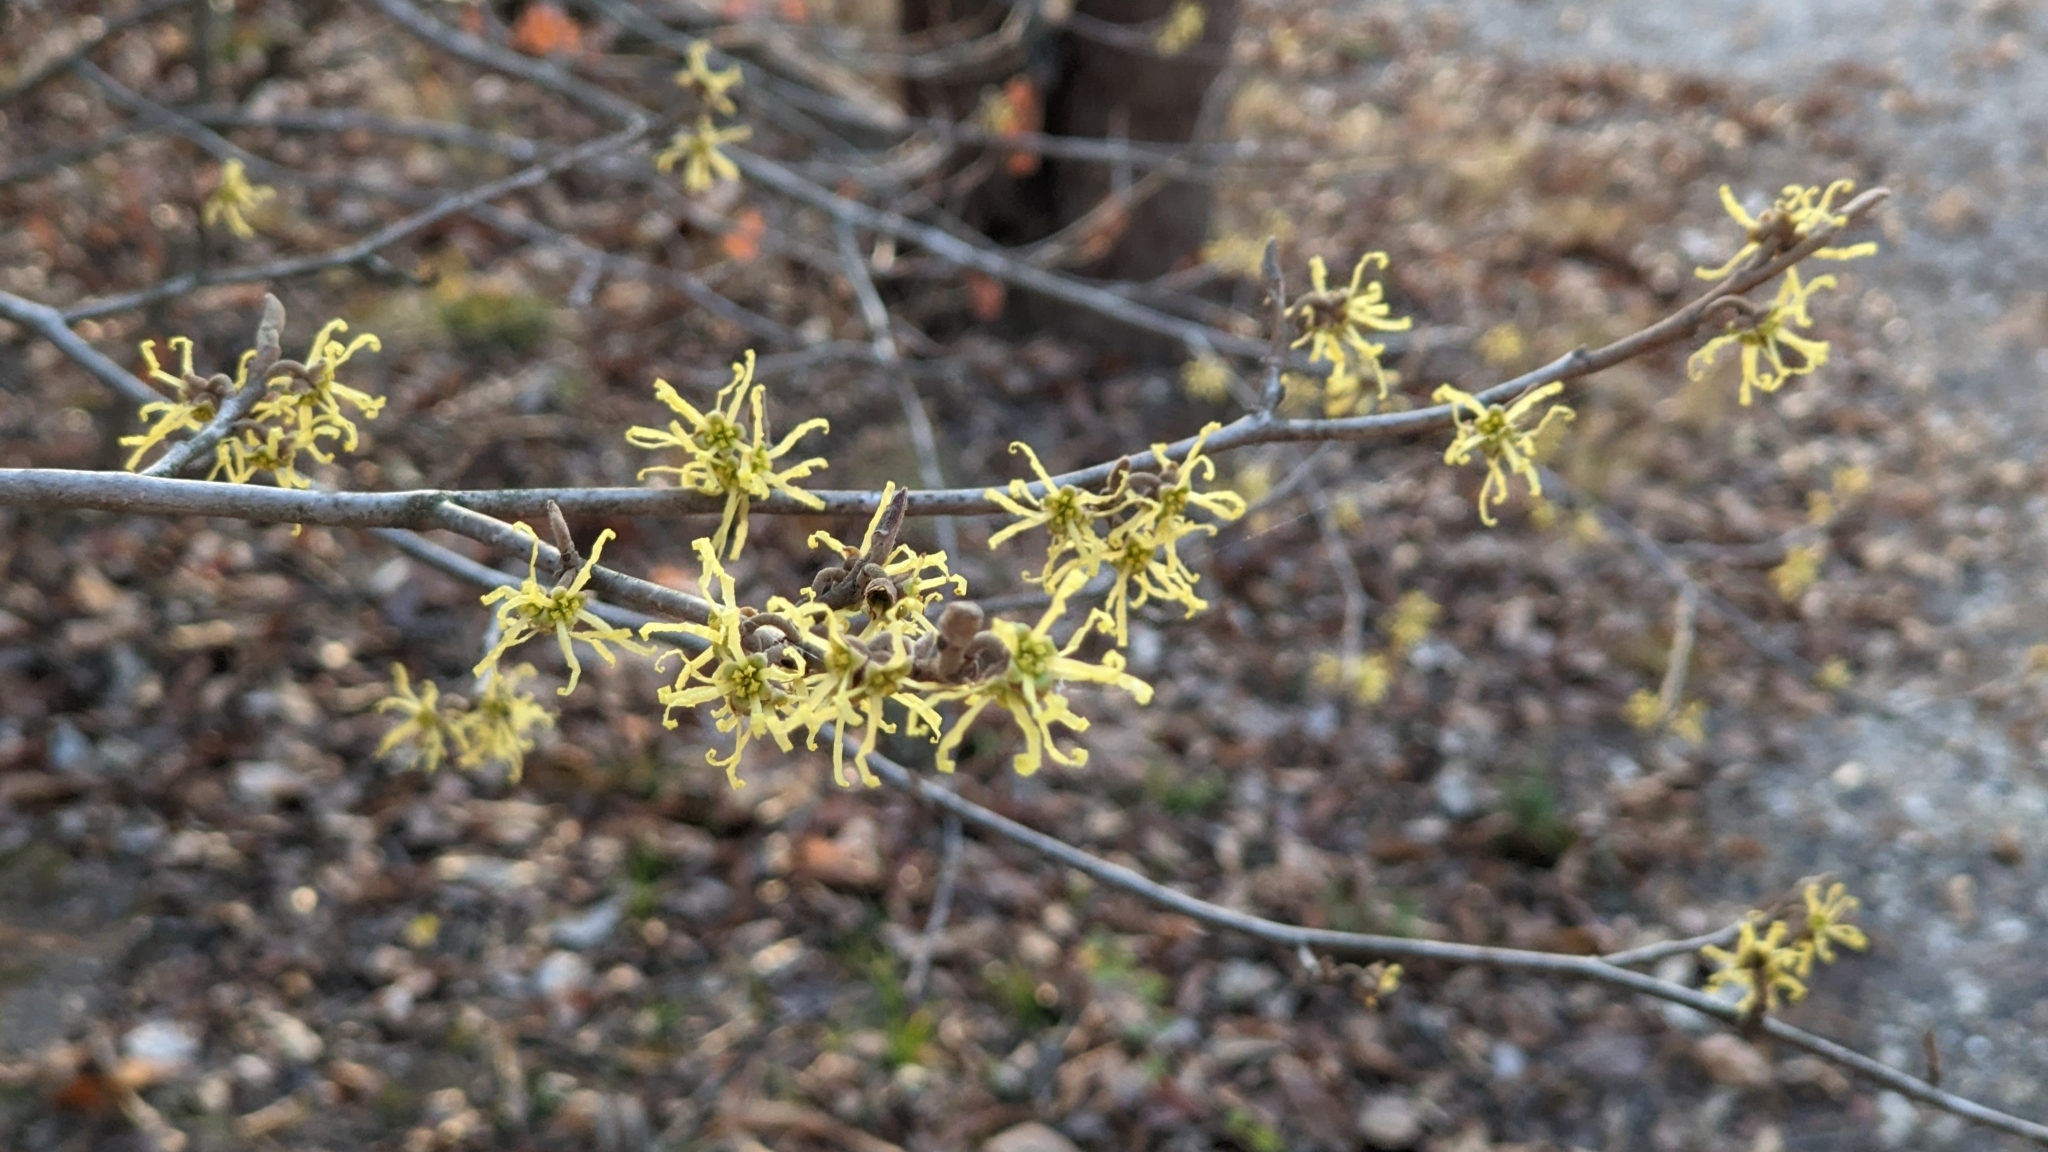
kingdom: Plantae
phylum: Tracheophyta
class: Magnoliopsida
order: Saxifragales
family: Hamamelidaceae
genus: Hamamelis
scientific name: Hamamelis virginiana
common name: Witch-hazel
